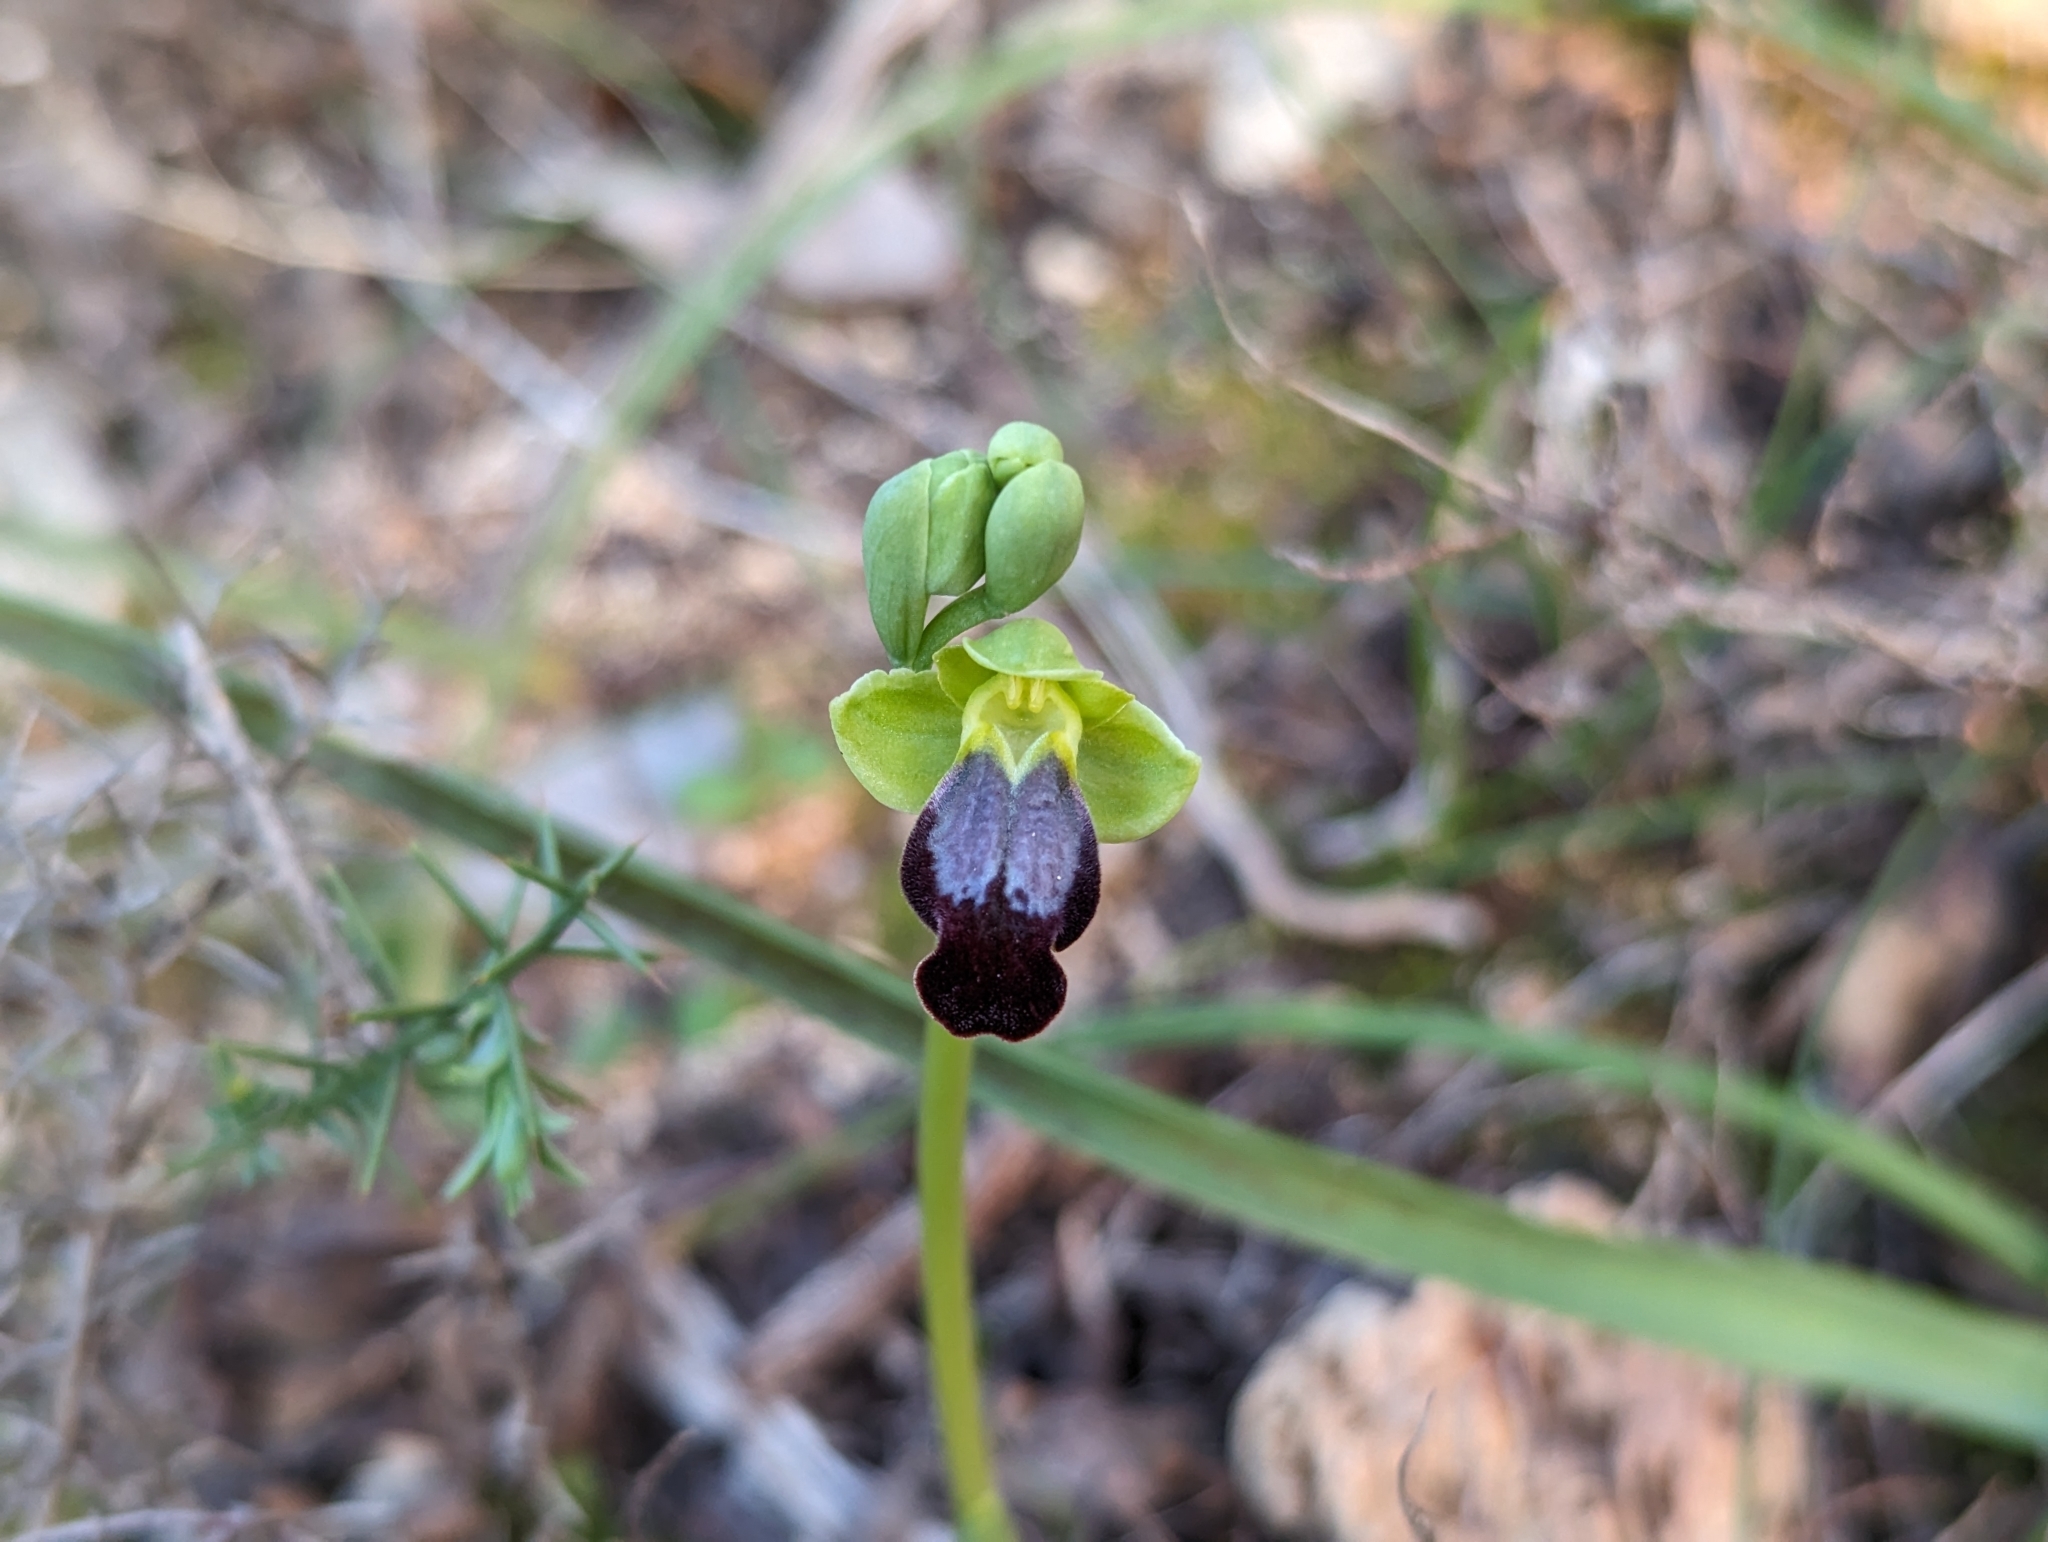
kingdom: Plantae
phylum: Tracheophyta
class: Liliopsida
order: Asparagales
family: Orchidaceae
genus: Ophrys
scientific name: Ophrys fusca
